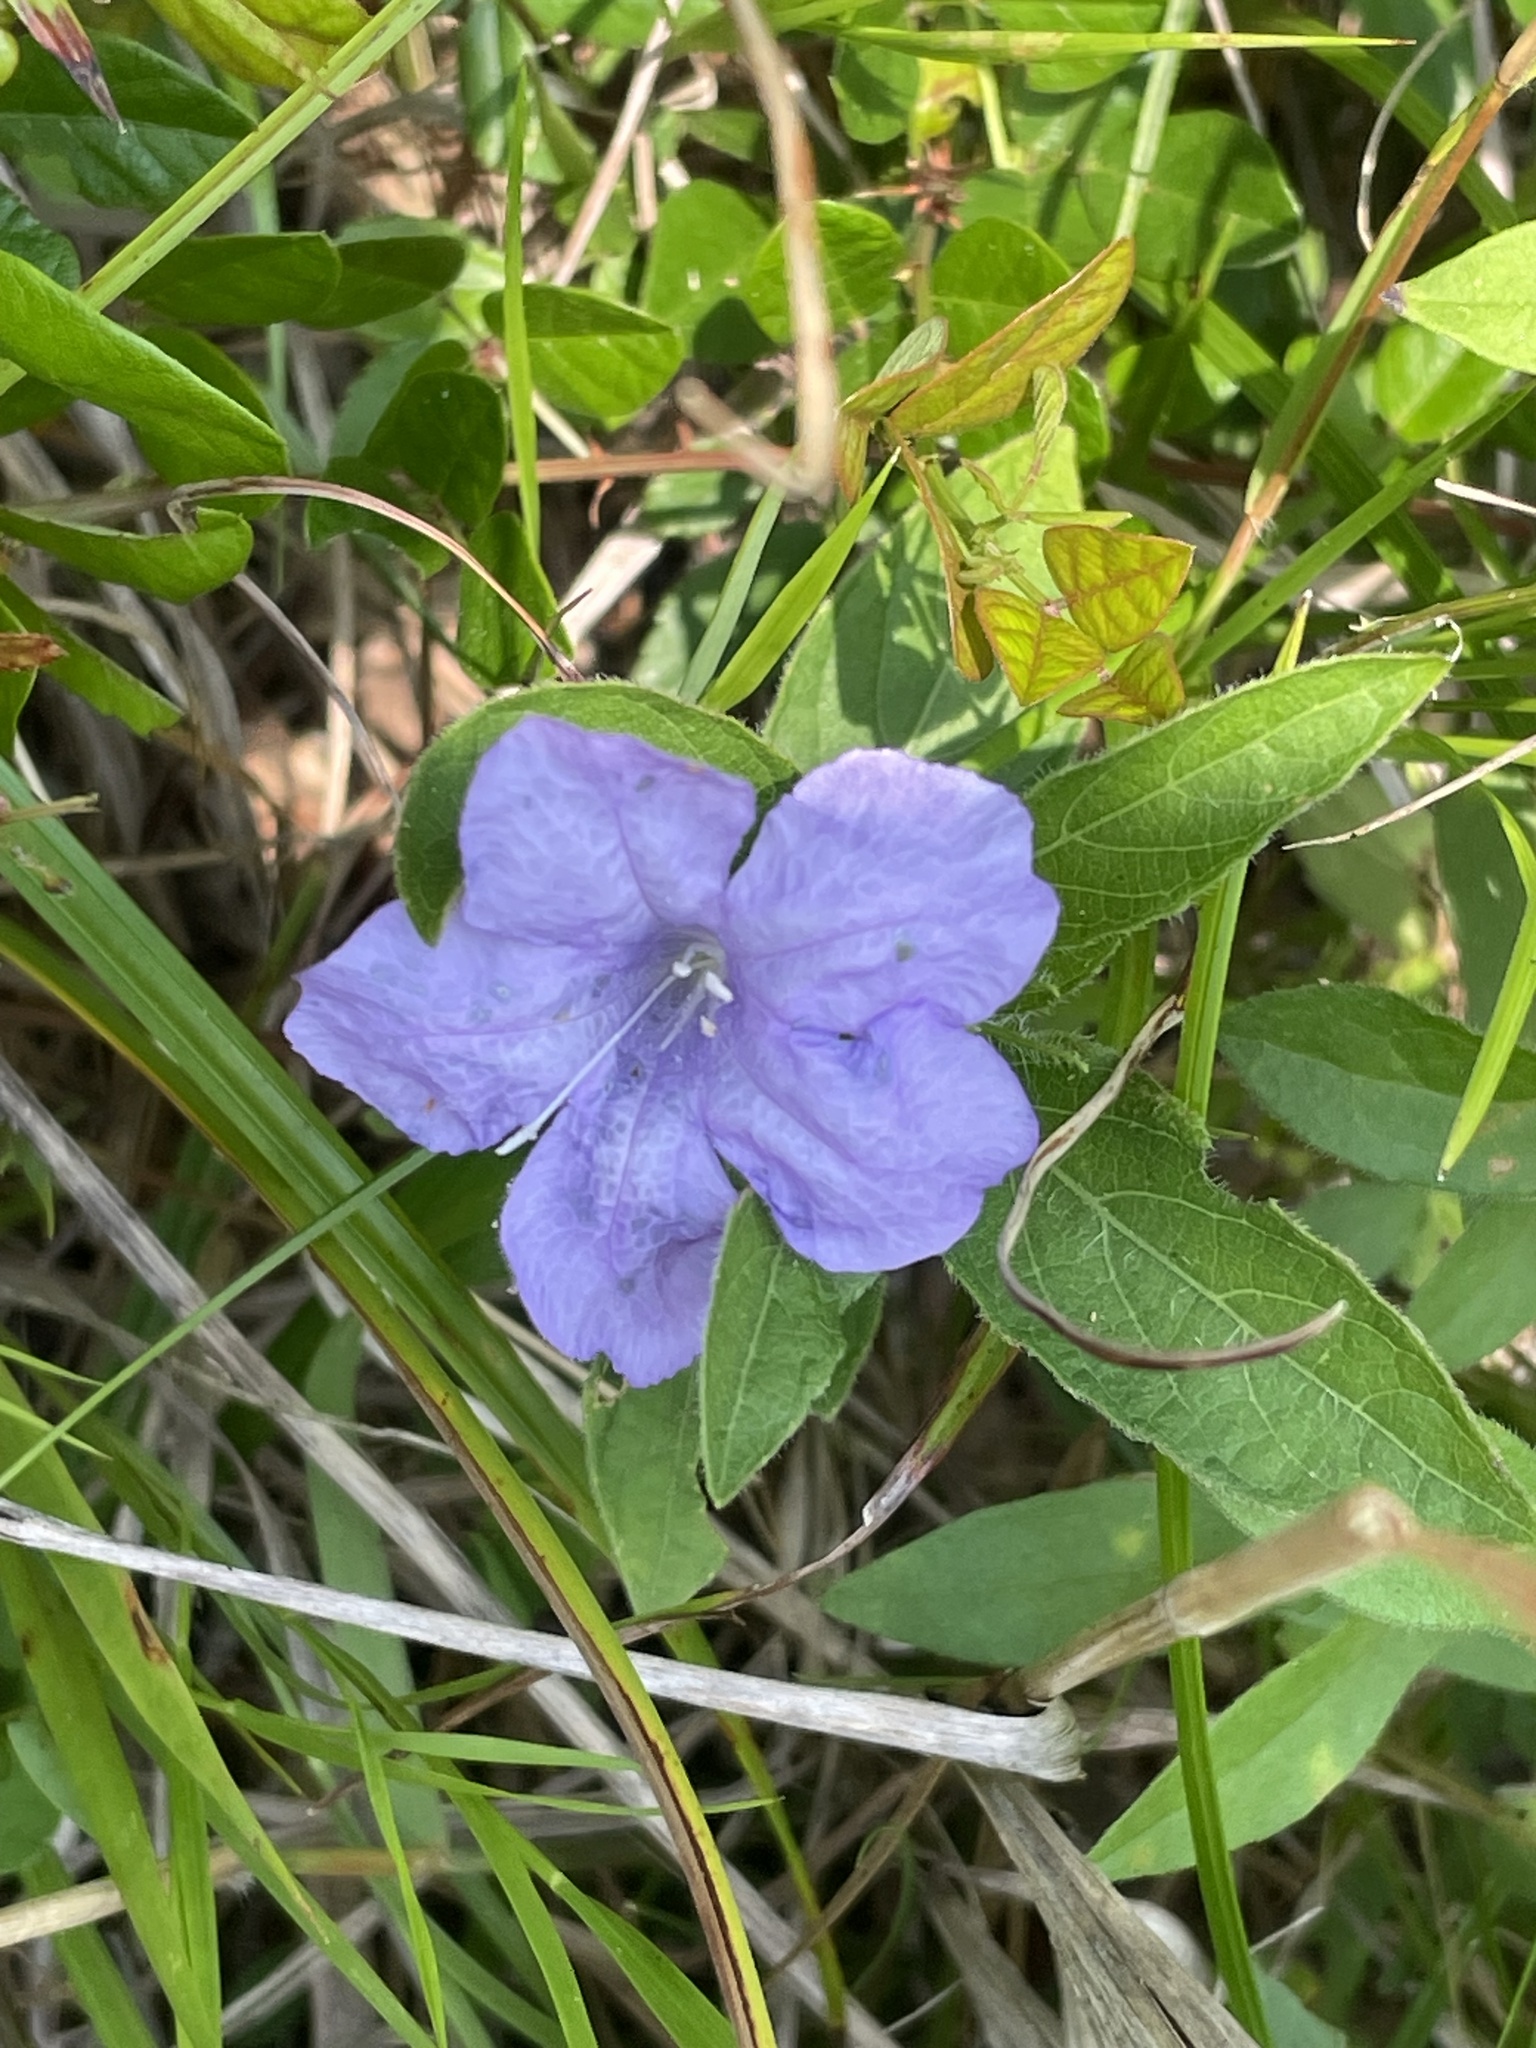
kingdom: Plantae
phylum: Tracheophyta
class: Magnoliopsida
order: Lamiales
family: Acanthaceae
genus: Ruellia
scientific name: Ruellia caroliniensis
